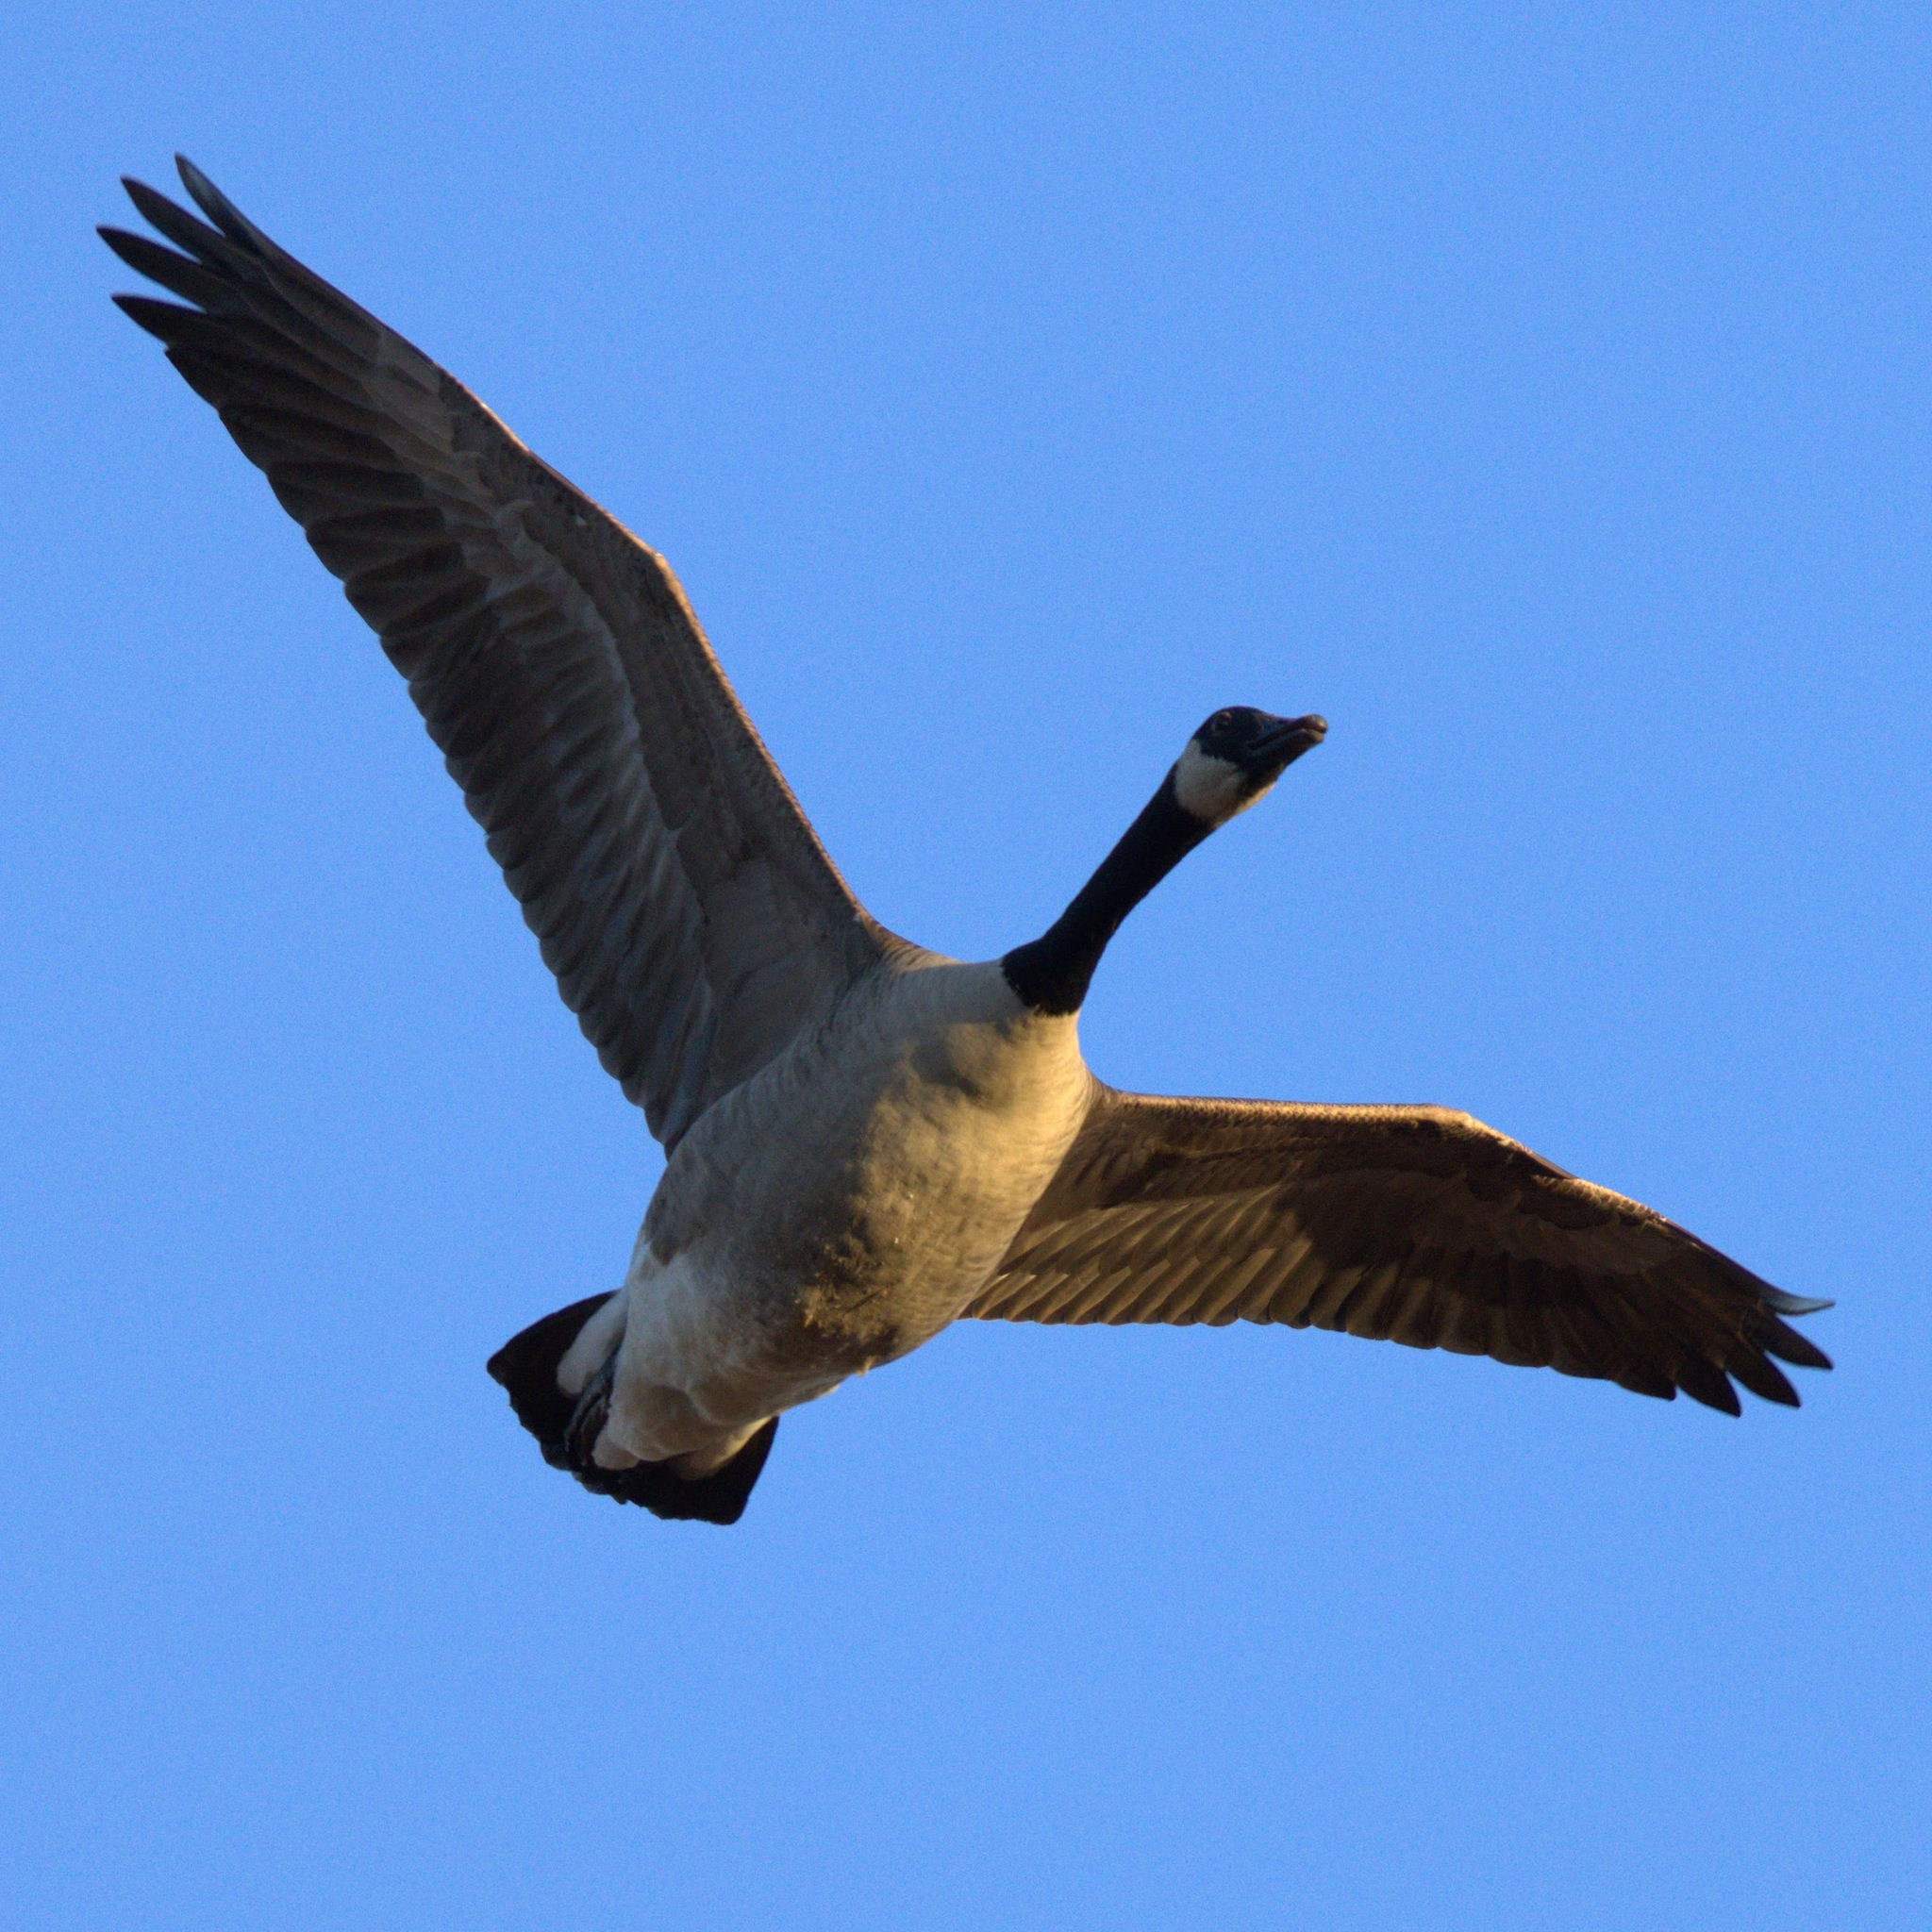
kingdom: Animalia
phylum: Chordata
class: Aves
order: Anseriformes
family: Anatidae
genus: Branta
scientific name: Branta canadensis
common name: Canada goose
